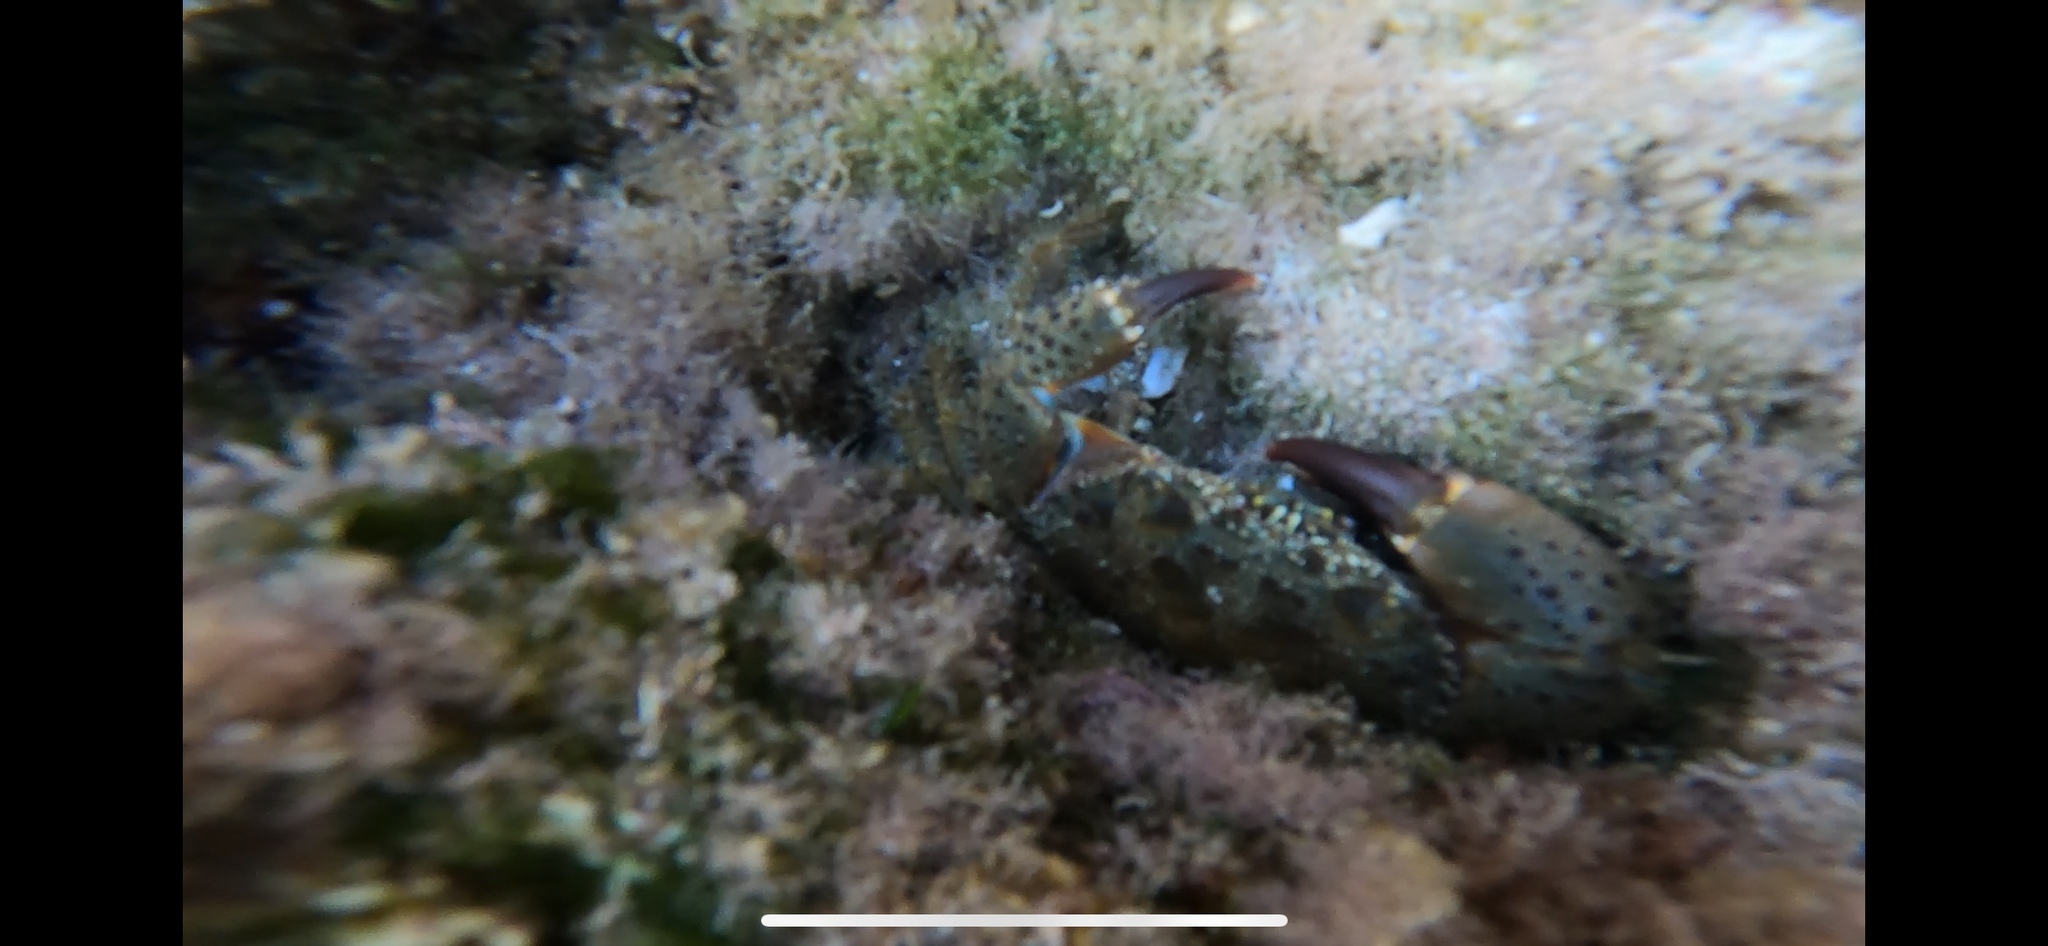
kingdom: Animalia
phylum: Arthropoda
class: Malacostraca
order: Decapoda
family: Eriphiidae
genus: Eriphia
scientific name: Eriphia verrucosa
